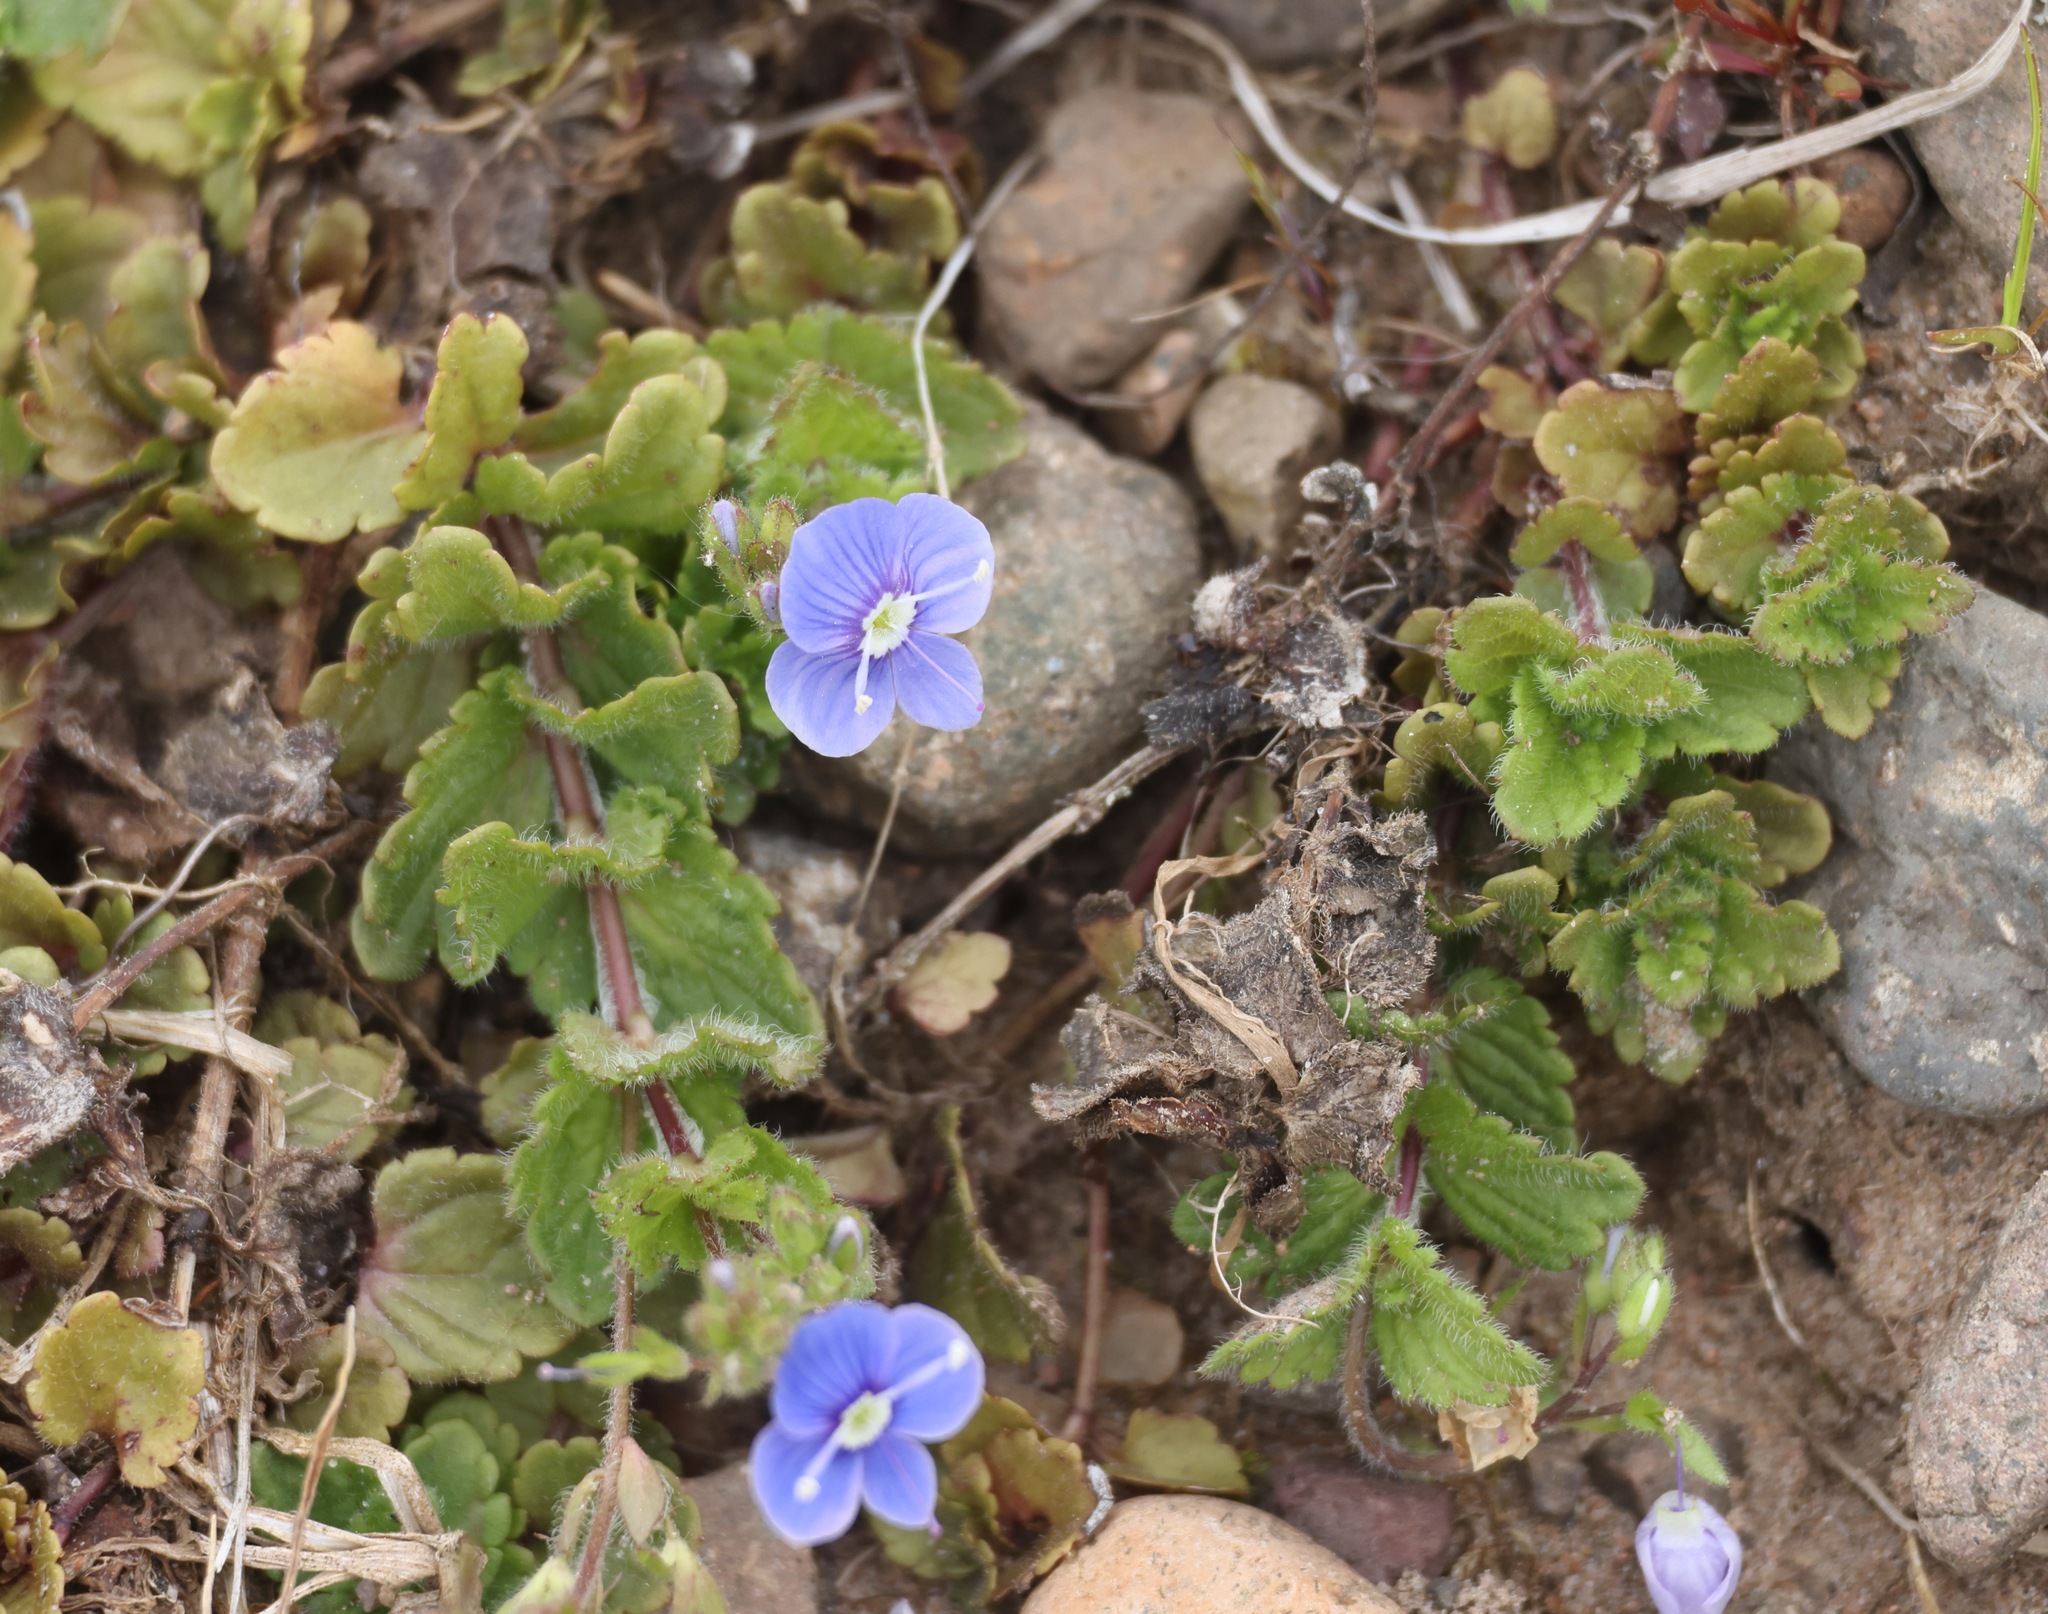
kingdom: Plantae
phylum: Tracheophyta
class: Magnoliopsida
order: Lamiales
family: Plantaginaceae
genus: Veronica
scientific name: Veronica chamaedrys
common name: Germander speedwell
